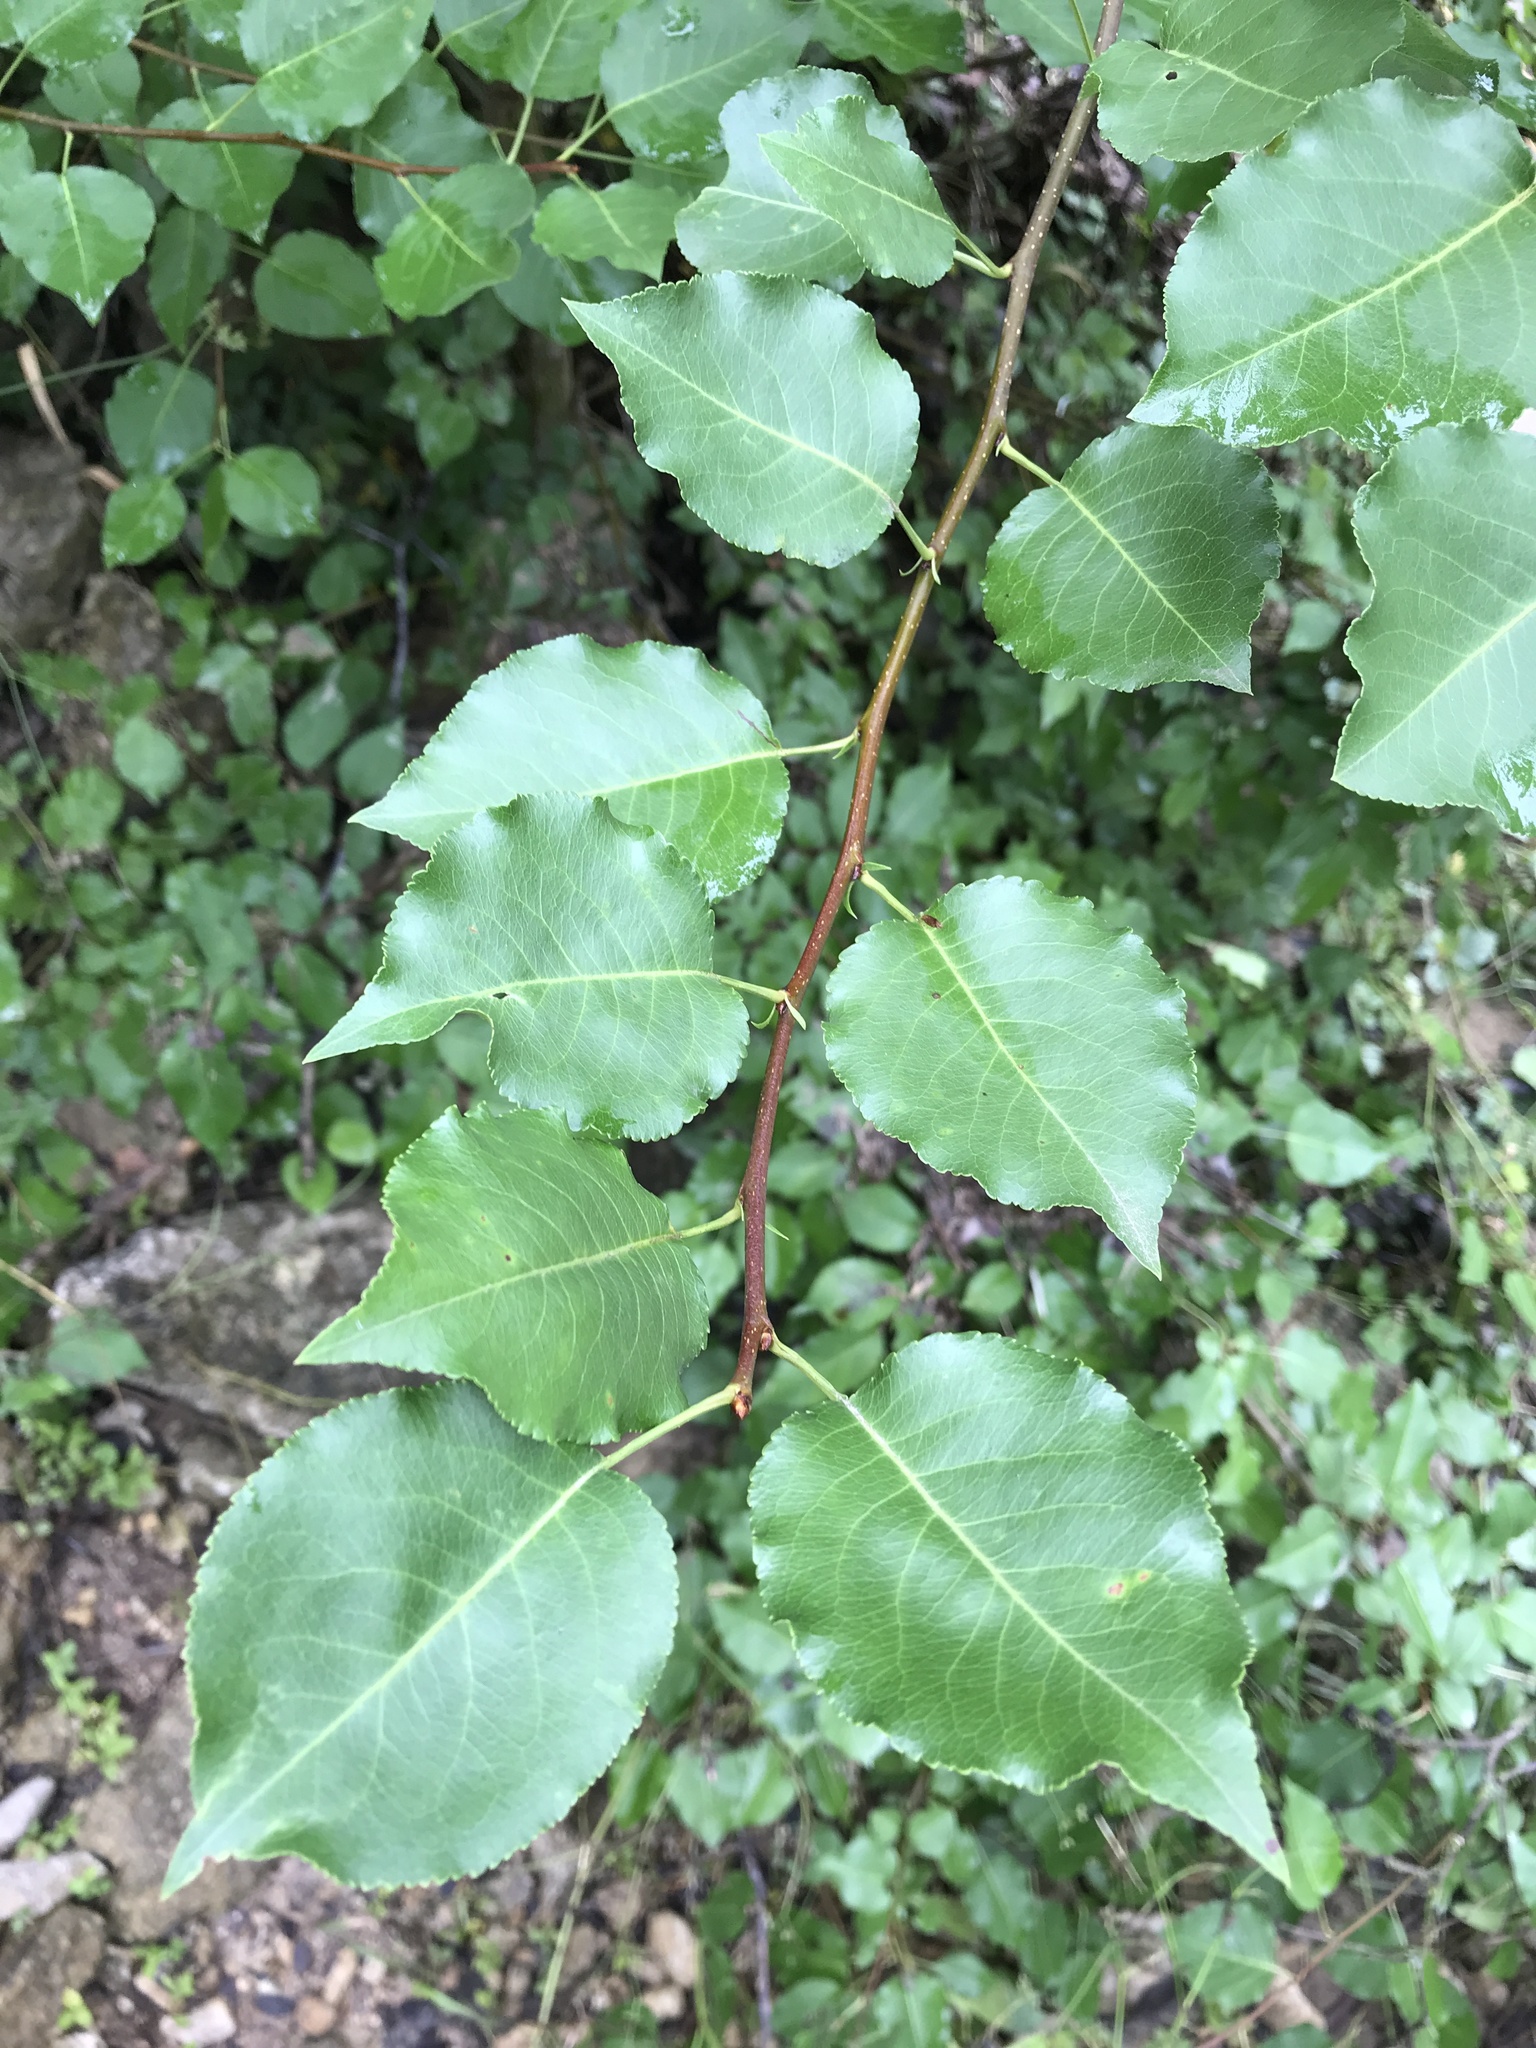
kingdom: Plantae
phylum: Tracheophyta
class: Magnoliopsida
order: Rosales
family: Rosaceae
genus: Pyrus
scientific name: Pyrus calleryana
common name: Callery pear
